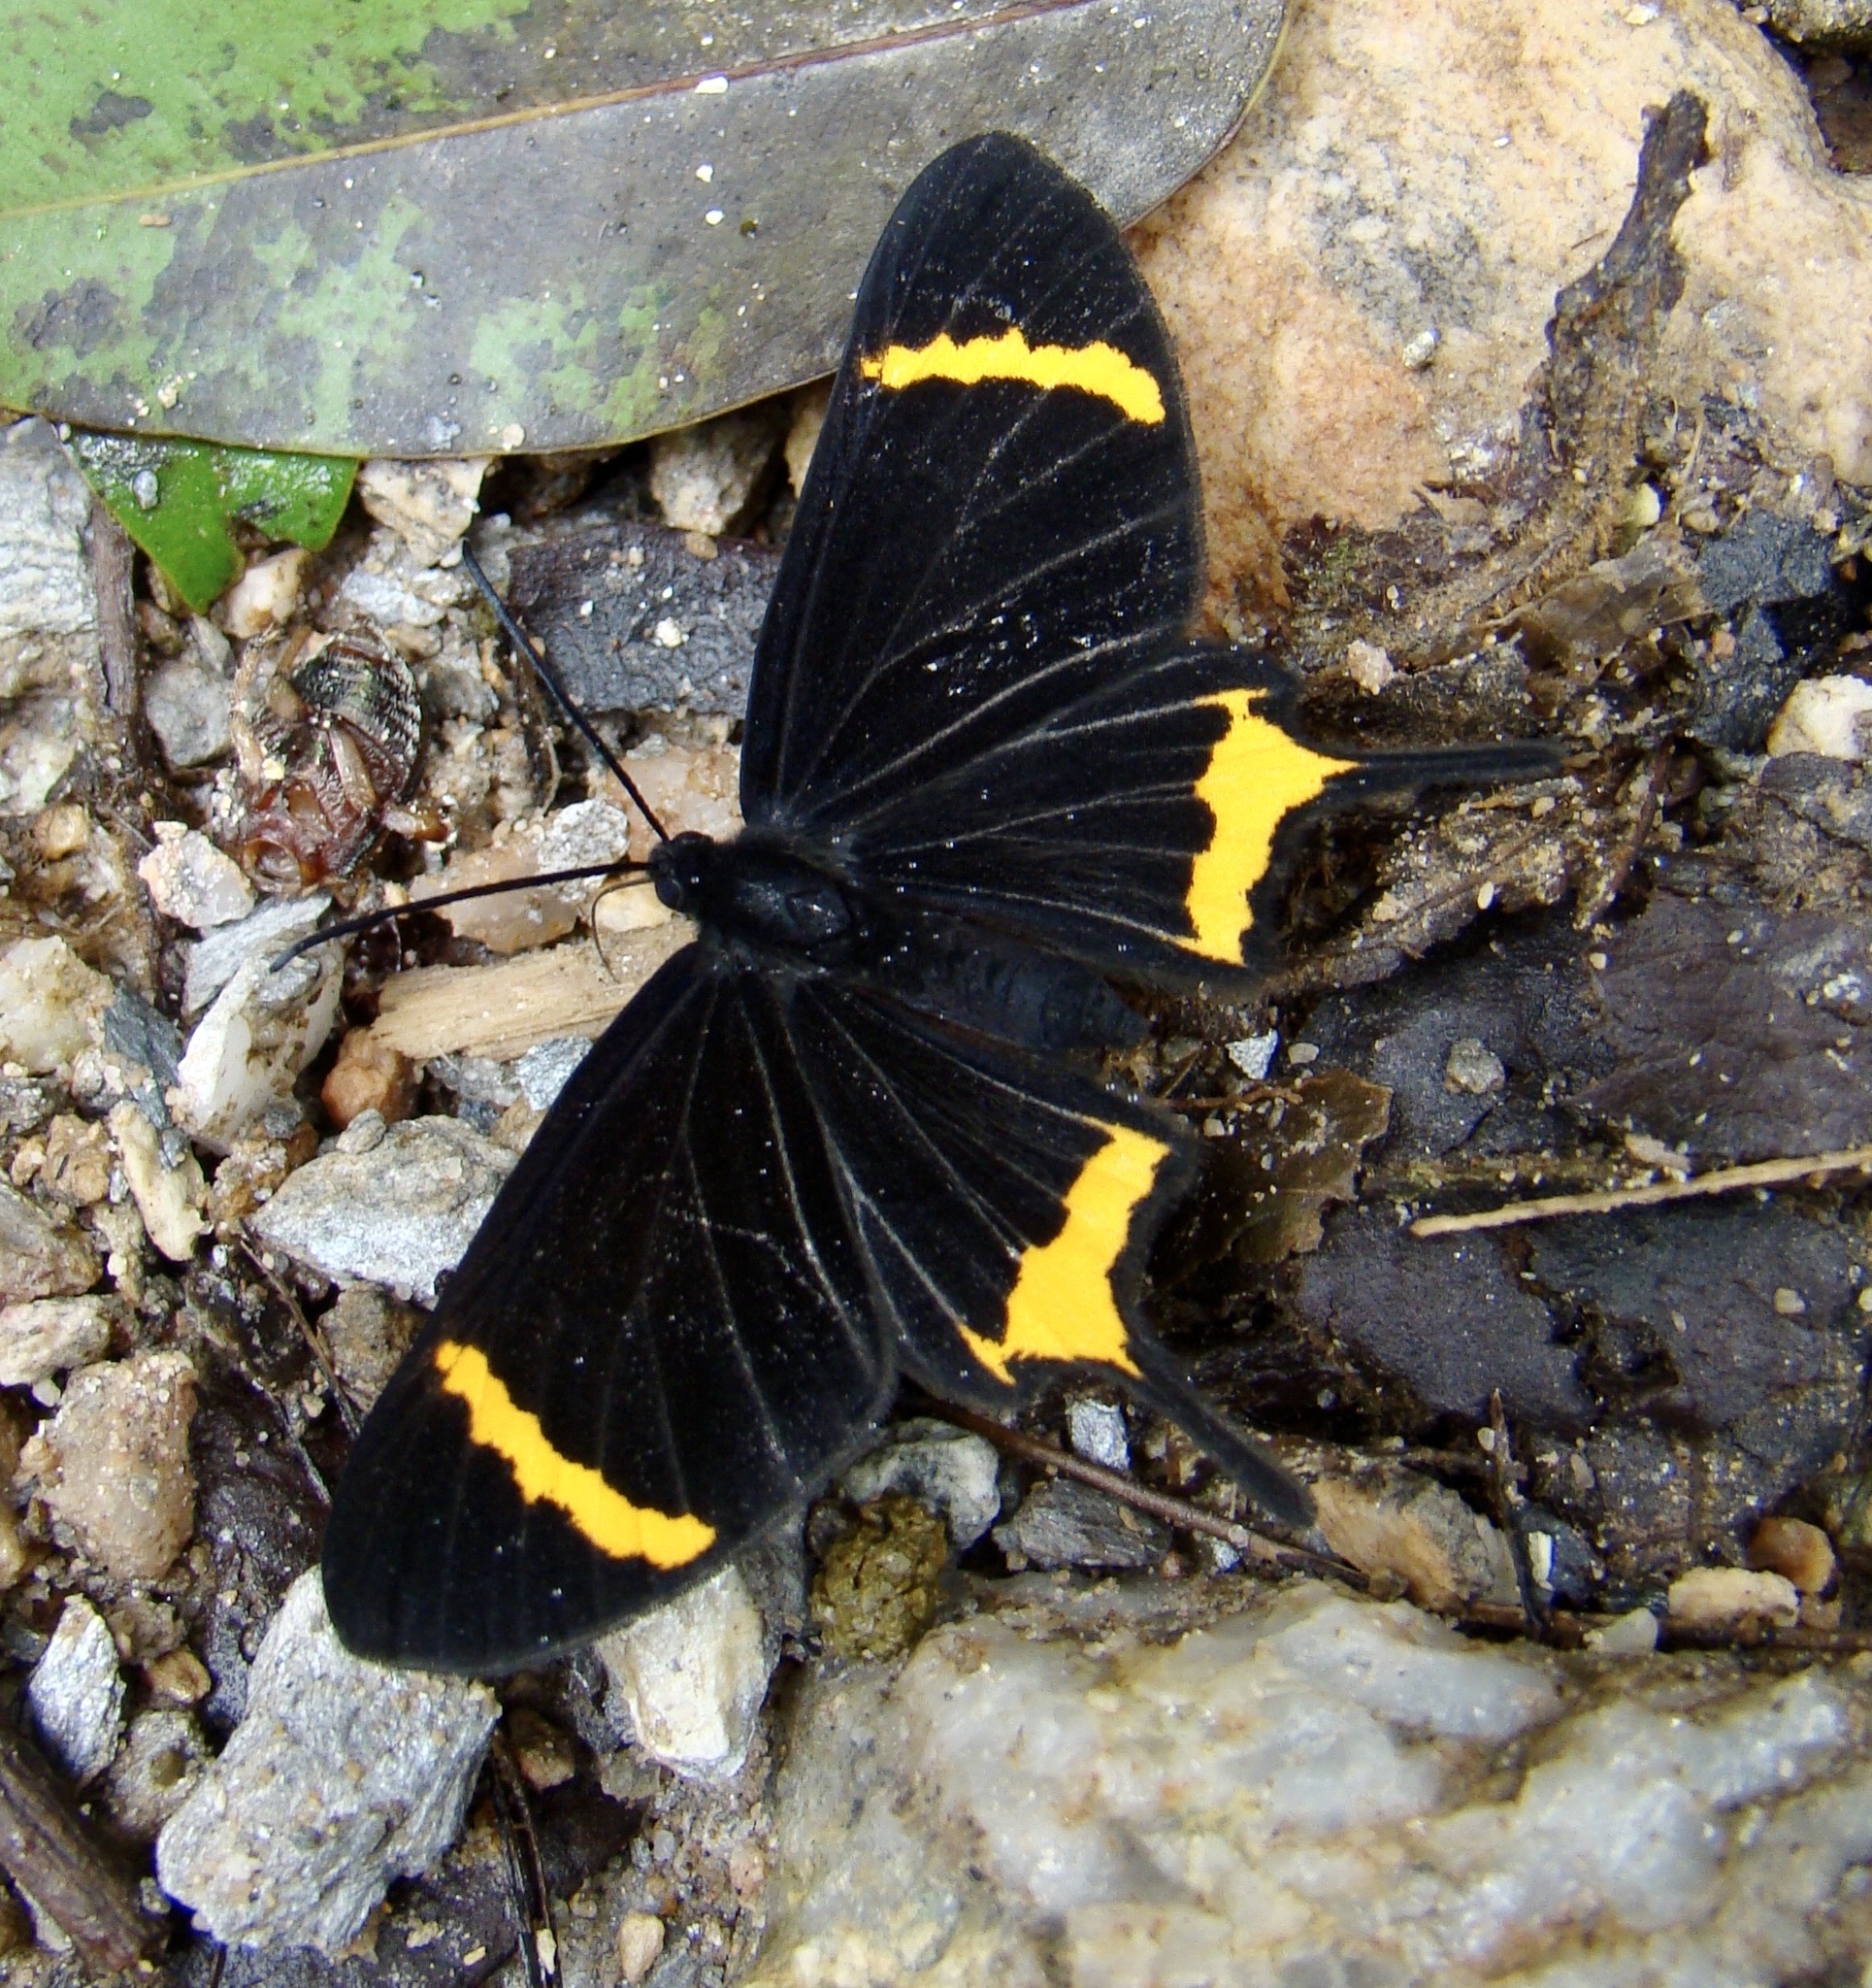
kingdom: Animalia
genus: Barbicornis
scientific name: Barbicornis basilis
